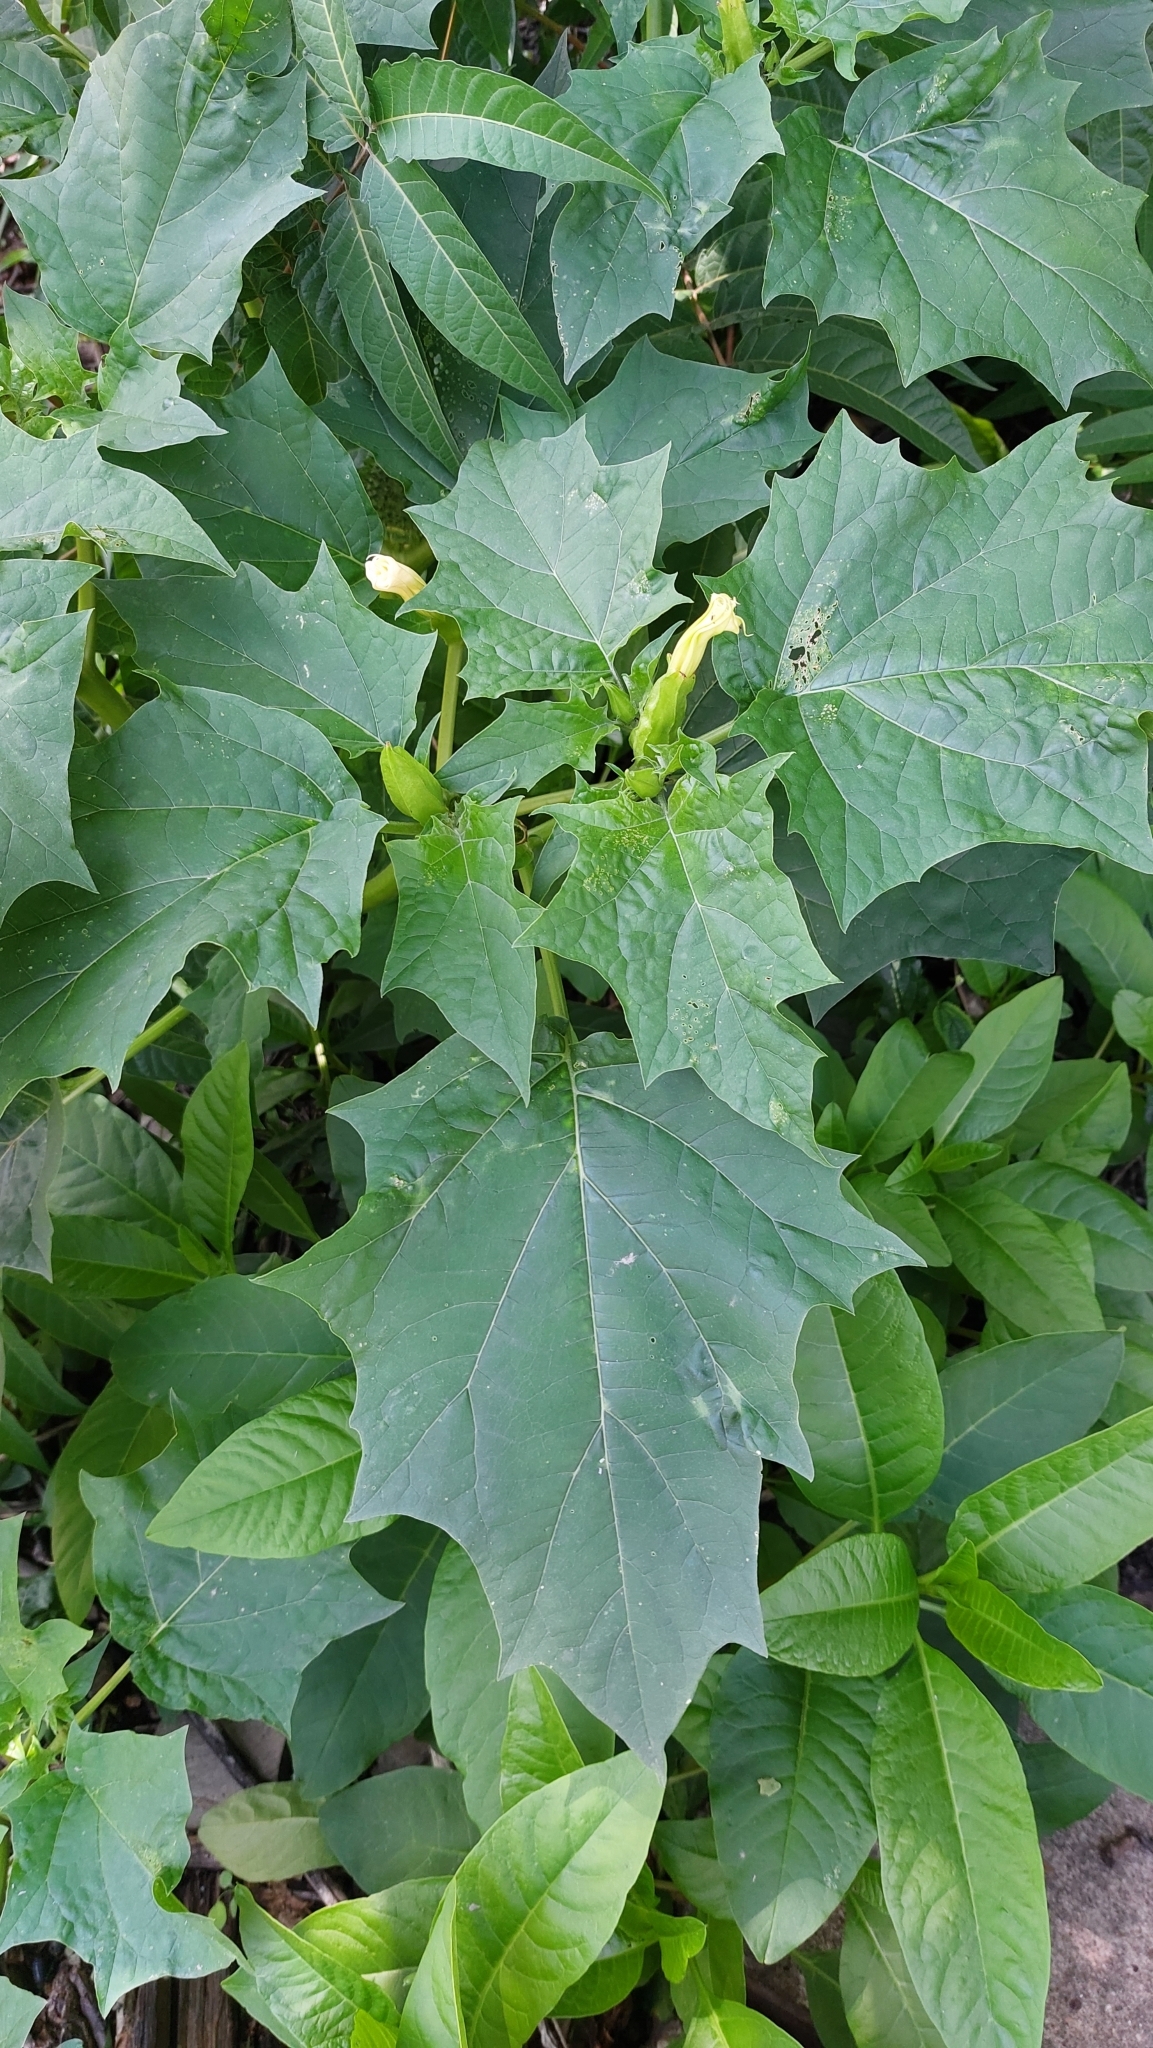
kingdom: Plantae
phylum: Tracheophyta
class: Magnoliopsida
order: Solanales
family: Solanaceae
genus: Datura
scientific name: Datura stramonium
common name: Thorn-apple
